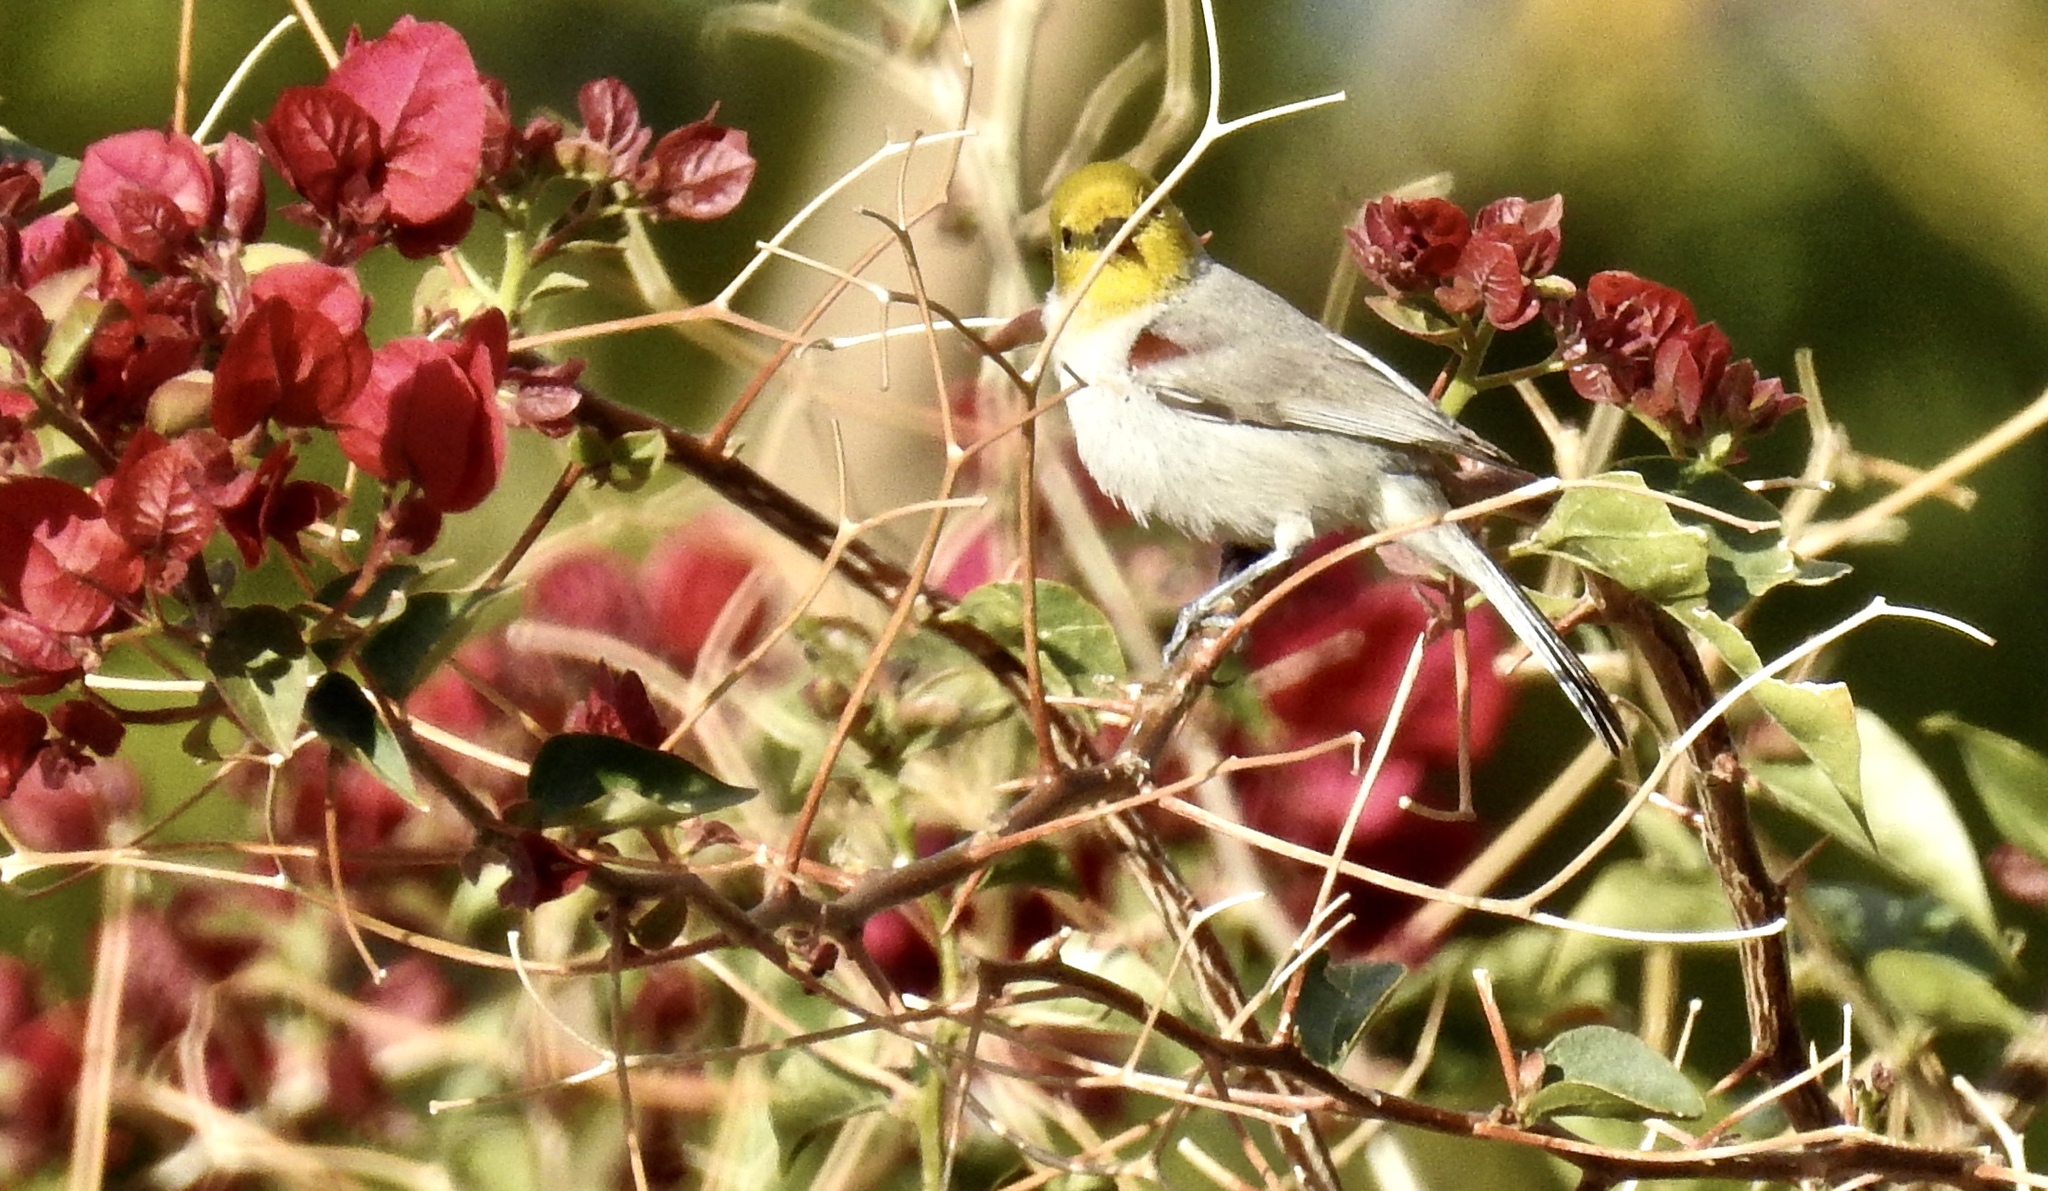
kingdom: Animalia
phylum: Chordata
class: Aves
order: Passeriformes
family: Remizidae
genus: Auriparus
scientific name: Auriparus flaviceps
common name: Verdin
